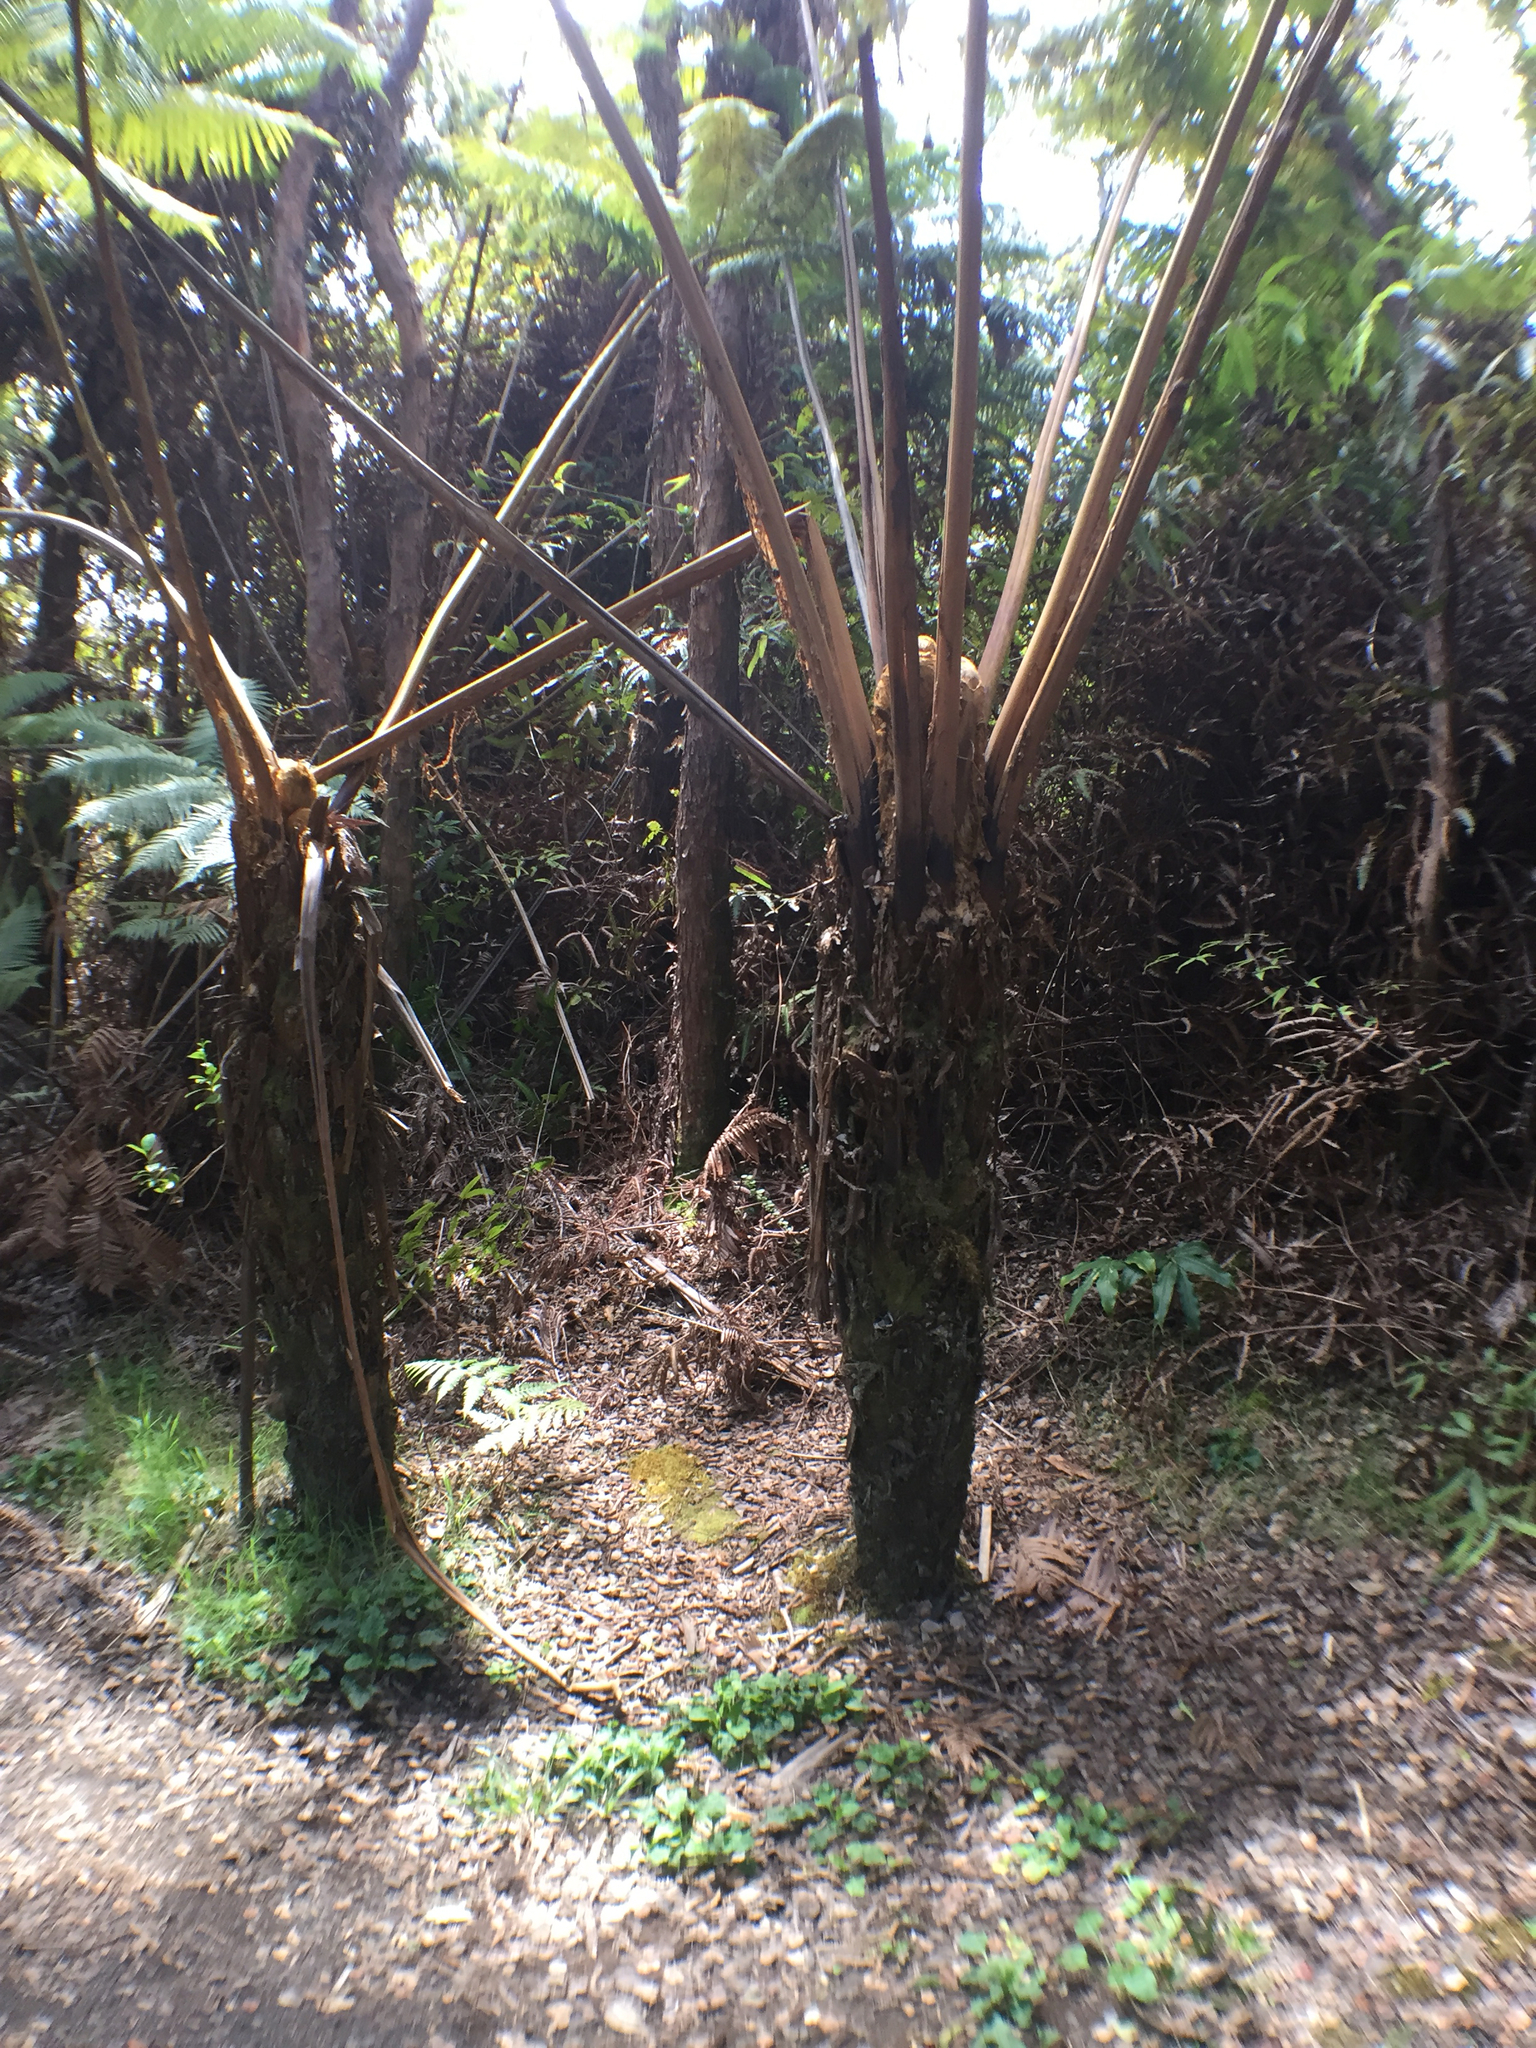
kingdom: Plantae
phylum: Tracheophyta
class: Polypodiopsida
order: Cyatheales
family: Cibotiaceae
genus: Cibotium
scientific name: Cibotium glaucum
